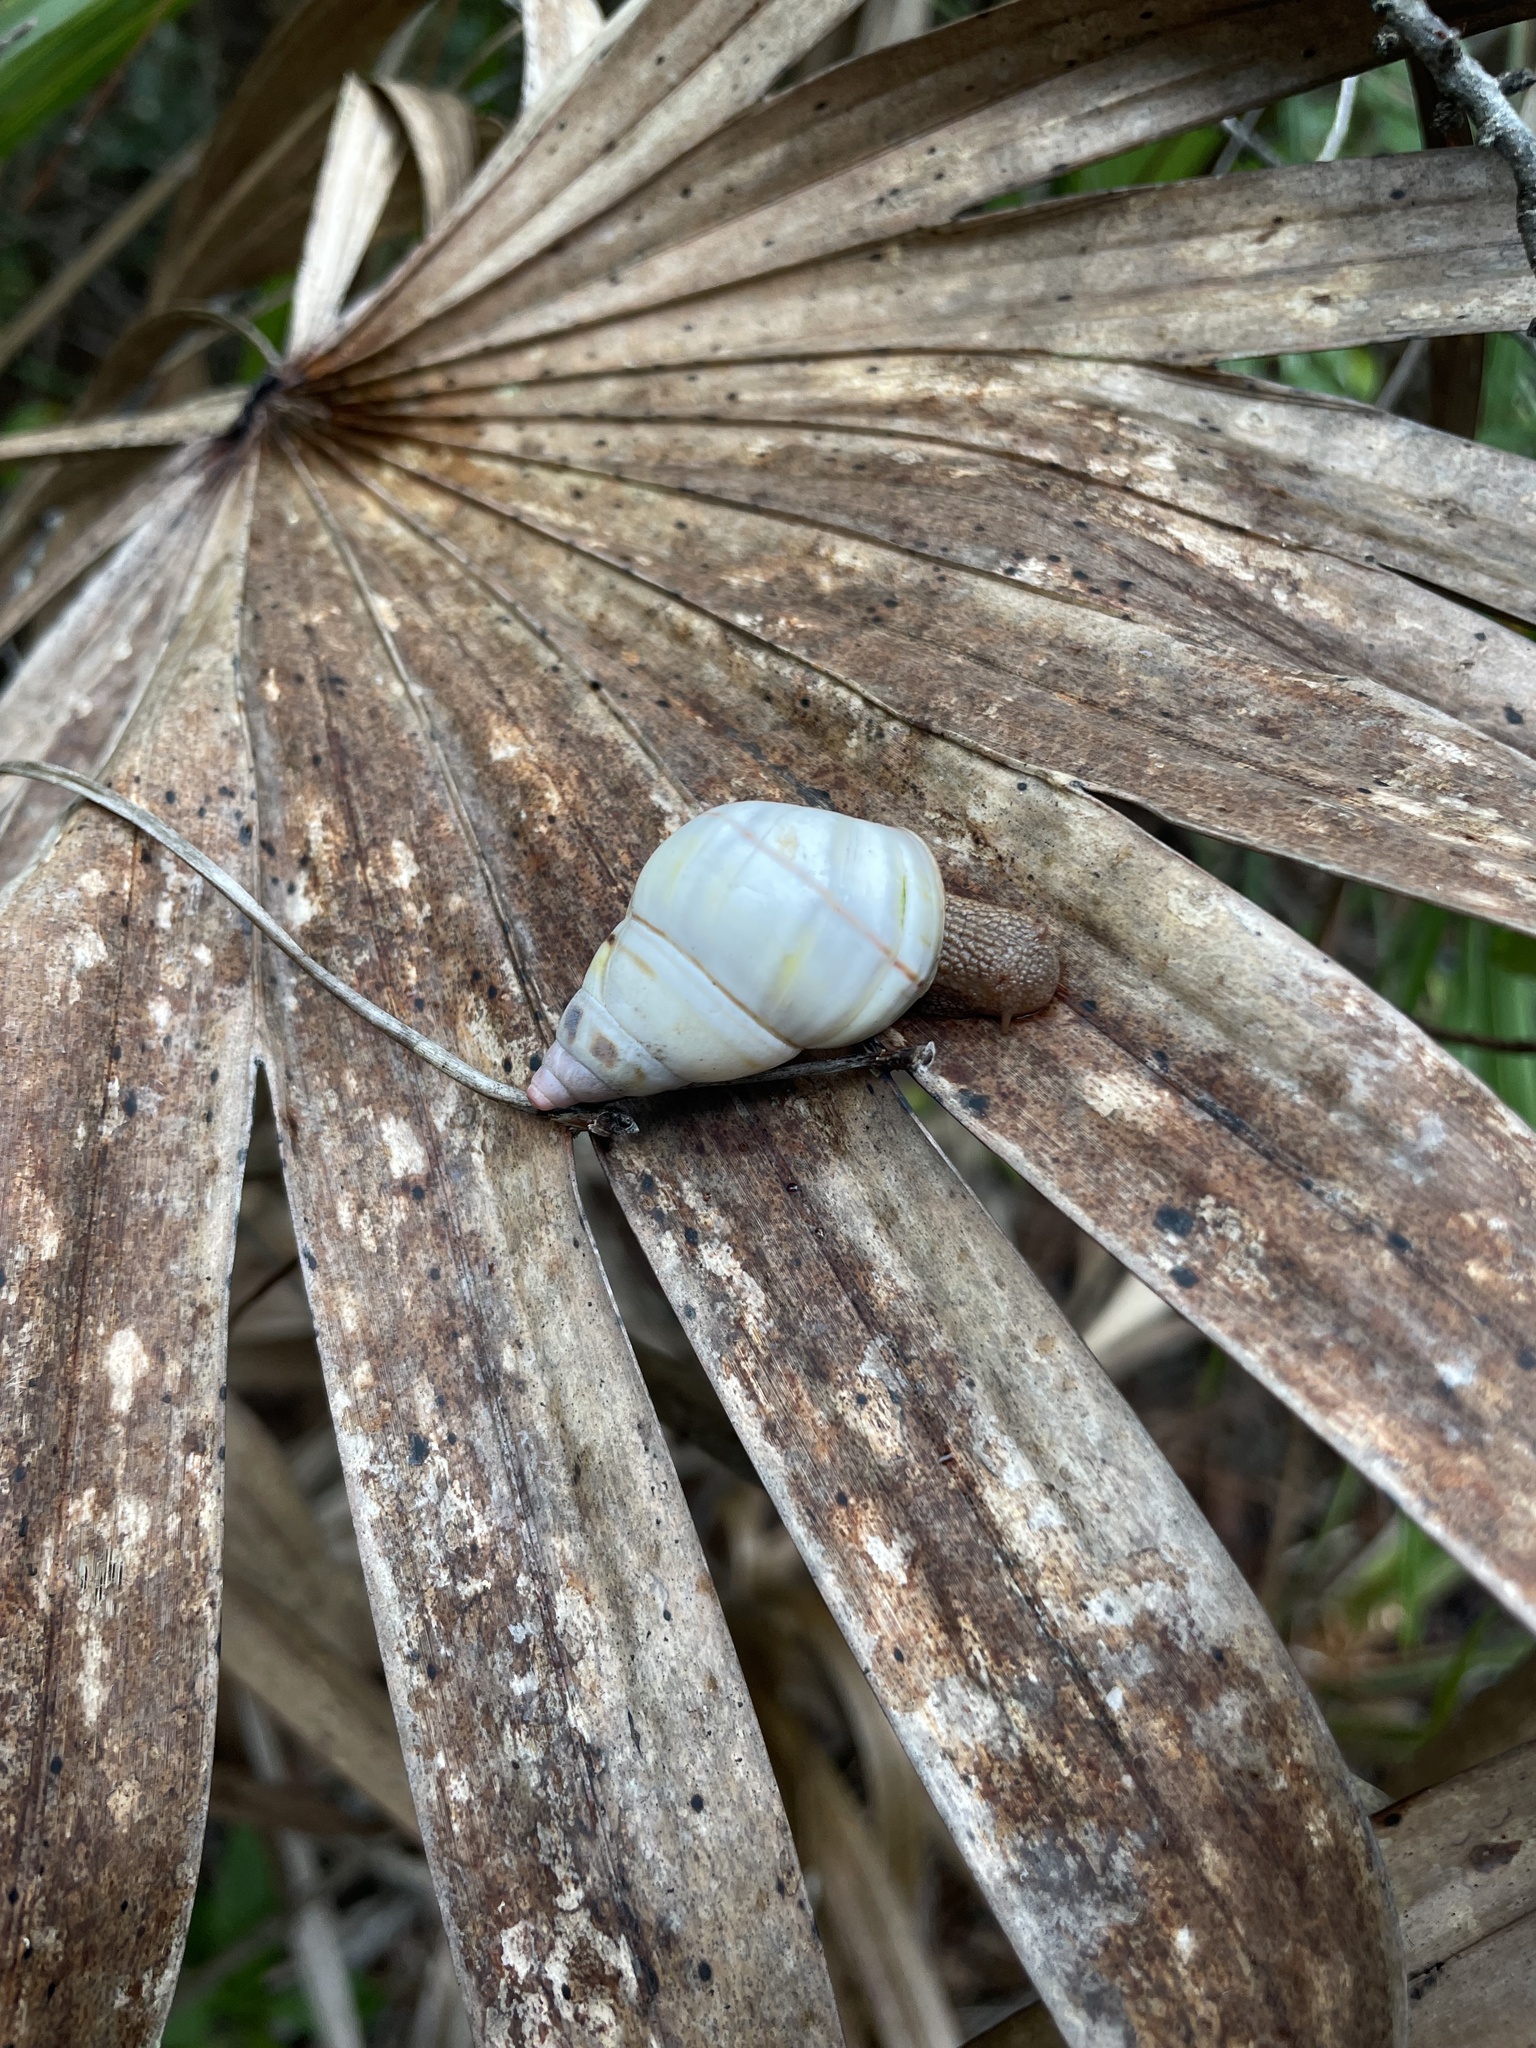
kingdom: Animalia
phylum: Mollusca
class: Gastropoda
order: Stylommatophora
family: Orthalicidae
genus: Liguus
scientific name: Liguus fasciatus
